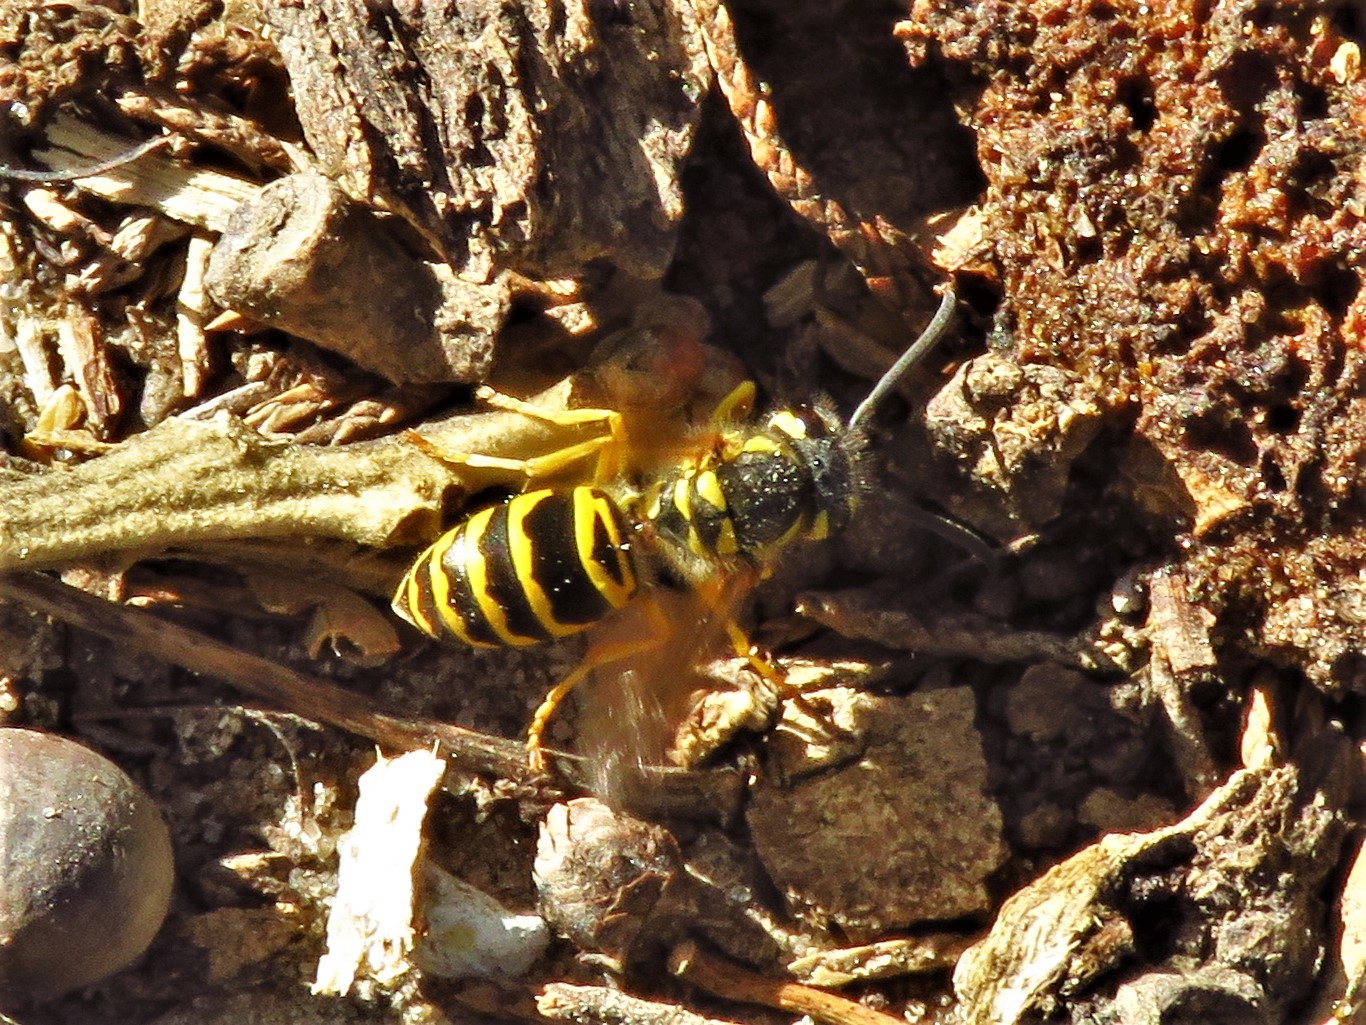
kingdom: Animalia
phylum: Arthropoda
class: Insecta
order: Hymenoptera
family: Vespidae
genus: Vespula
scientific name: Vespula maculifrons
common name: Eastern yellowjacket
